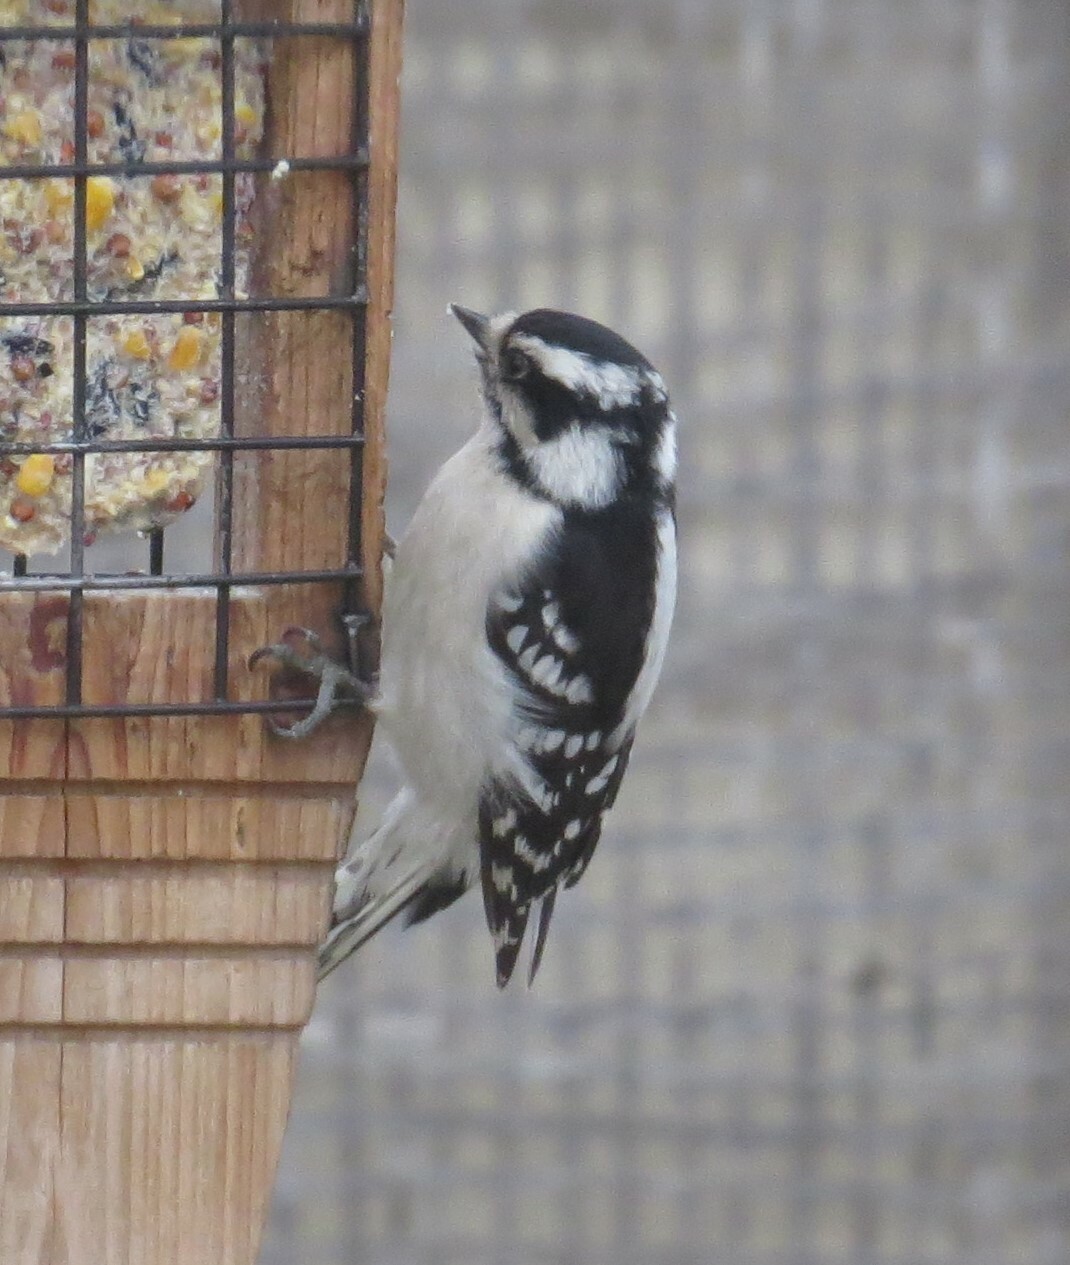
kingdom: Animalia
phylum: Chordata
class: Aves
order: Piciformes
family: Picidae
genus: Dryobates
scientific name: Dryobates pubescens
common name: Downy woodpecker
